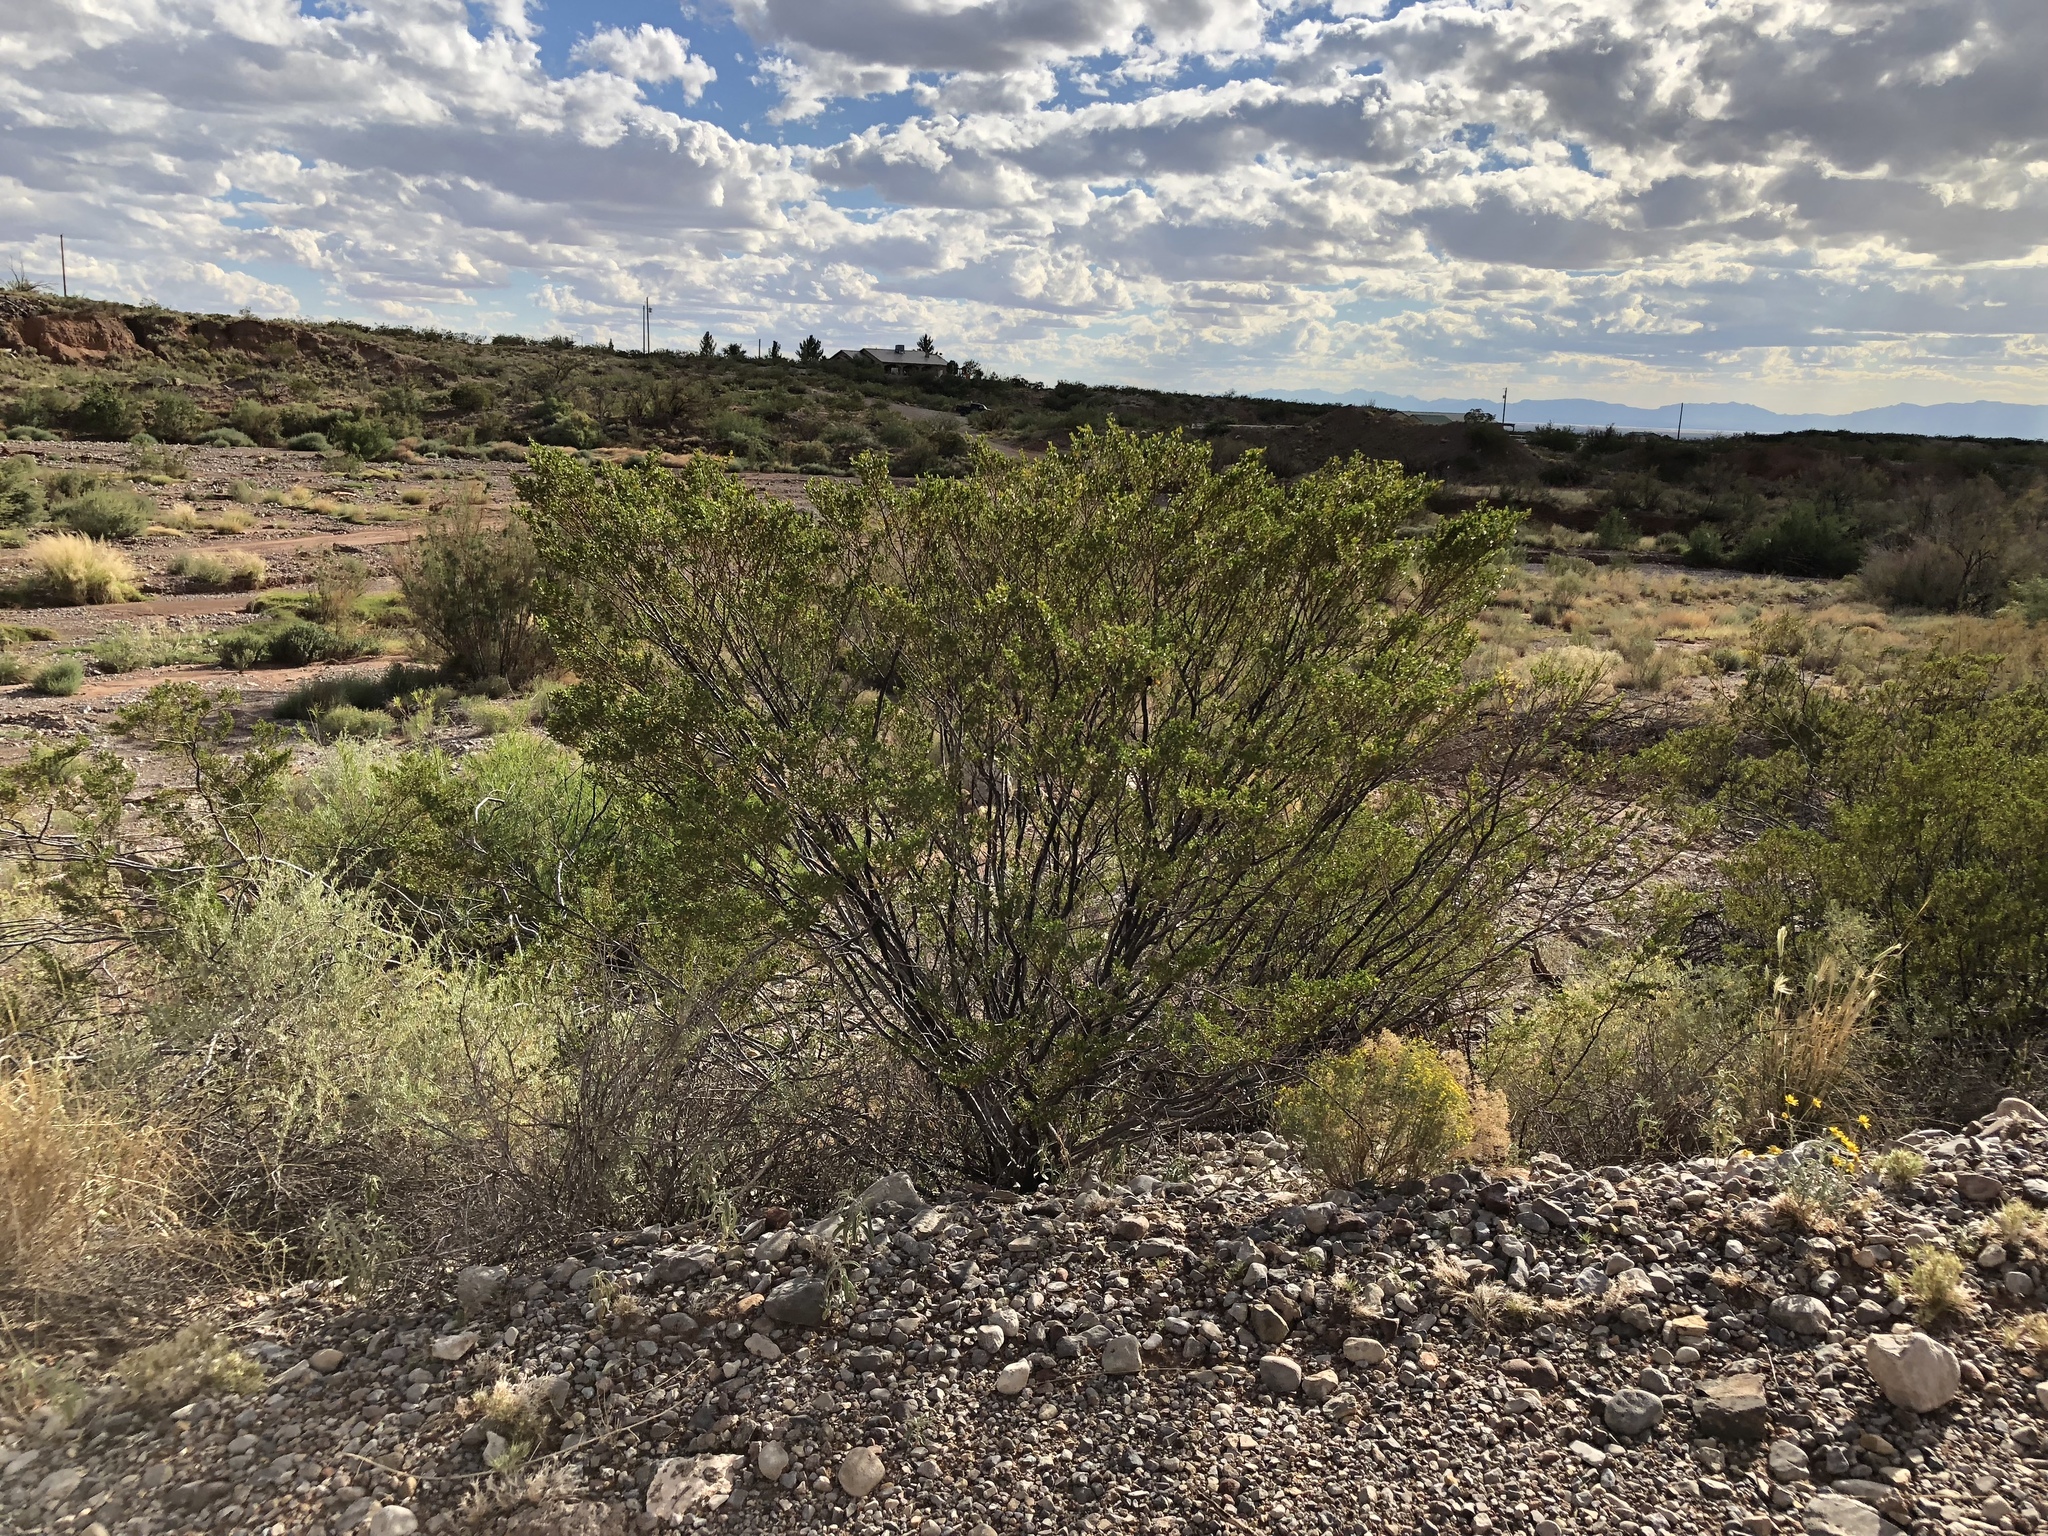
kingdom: Plantae
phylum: Tracheophyta
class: Magnoliopsida
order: Zygophyllales
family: Zygophyllaceae
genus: Larrea
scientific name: Larrea tridentata
